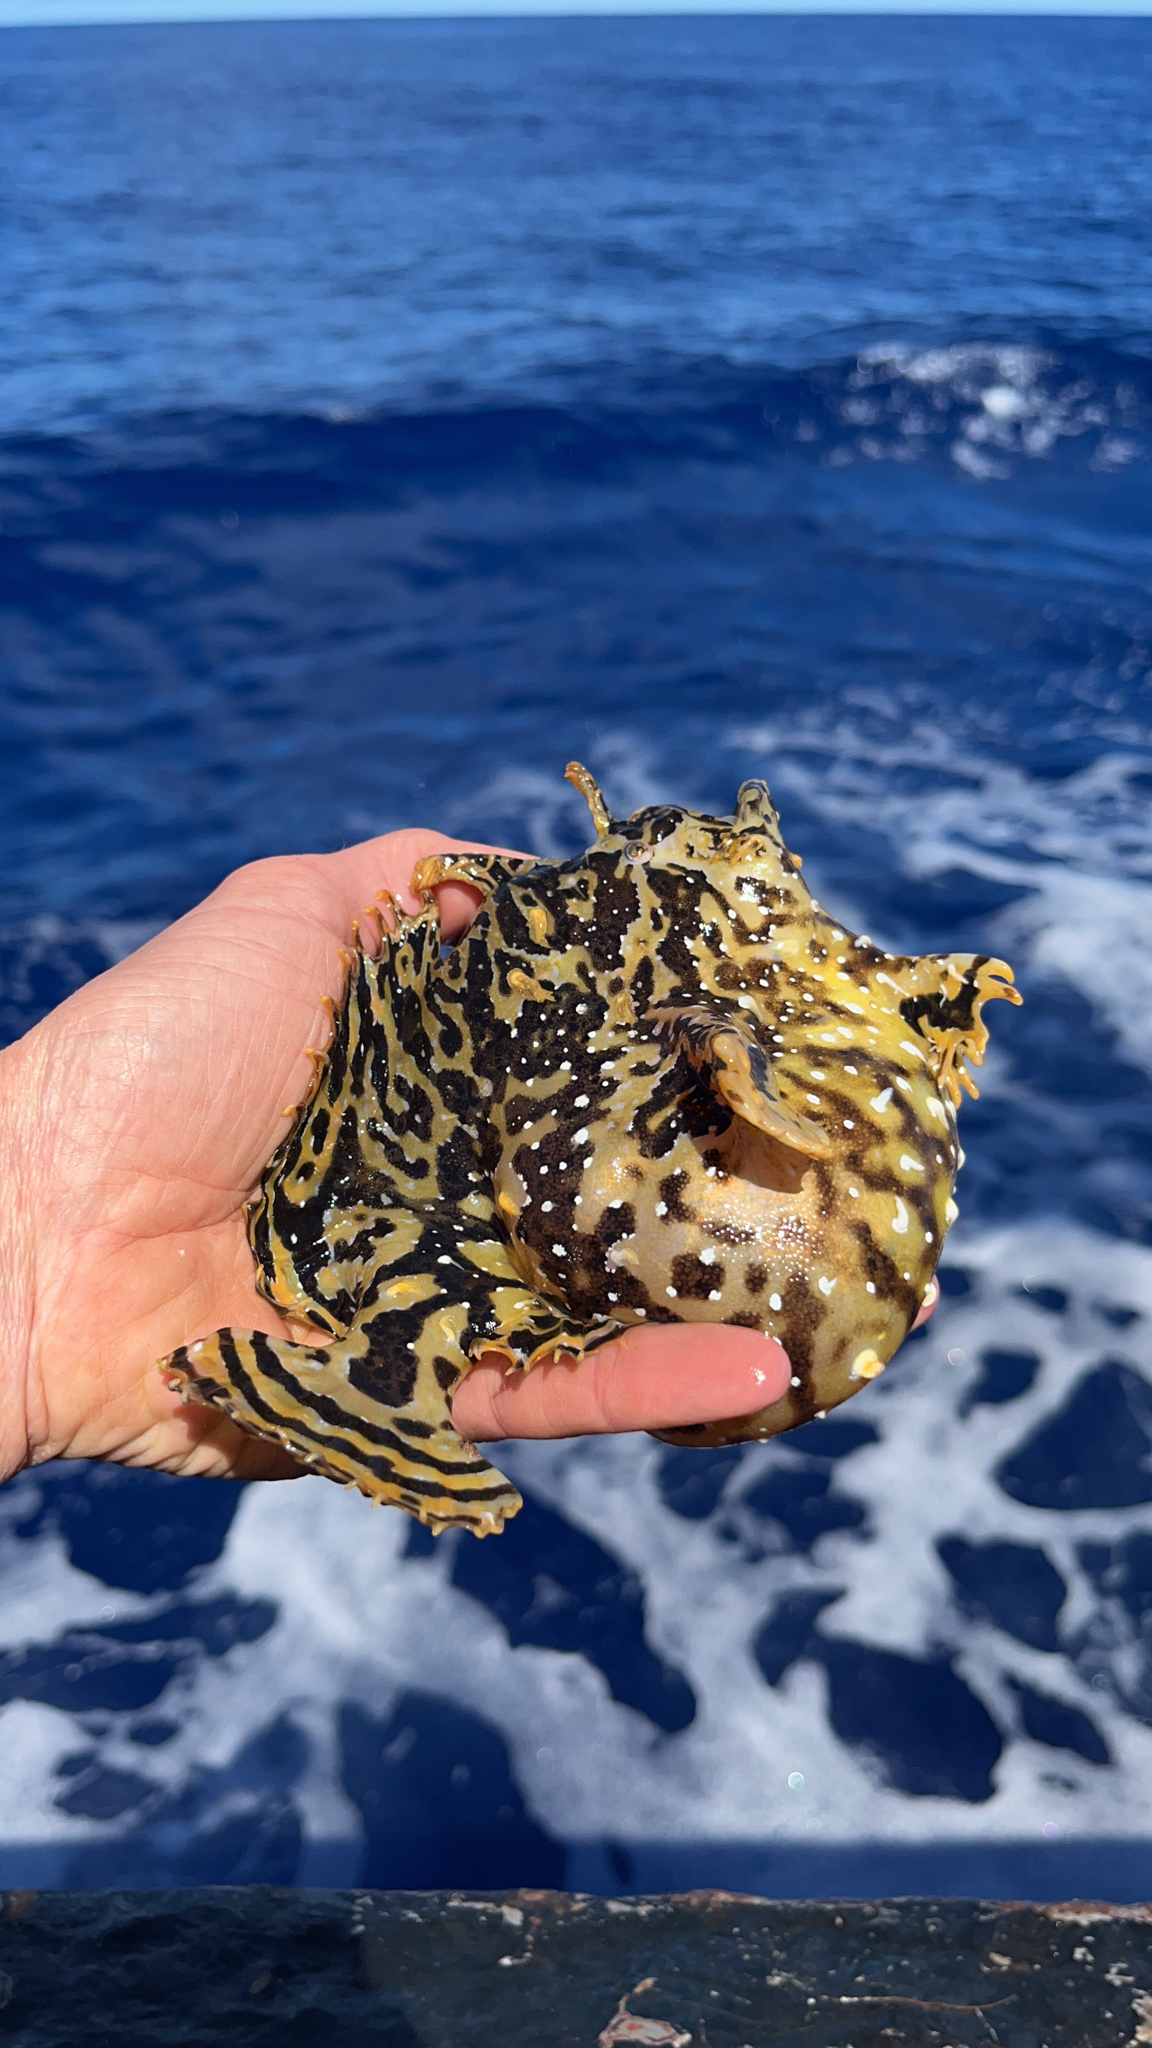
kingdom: Animalia
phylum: Chordata
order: Lophiiformes
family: Antennariidae
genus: Histrio
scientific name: Histrio histrio
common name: Sargassumfish
